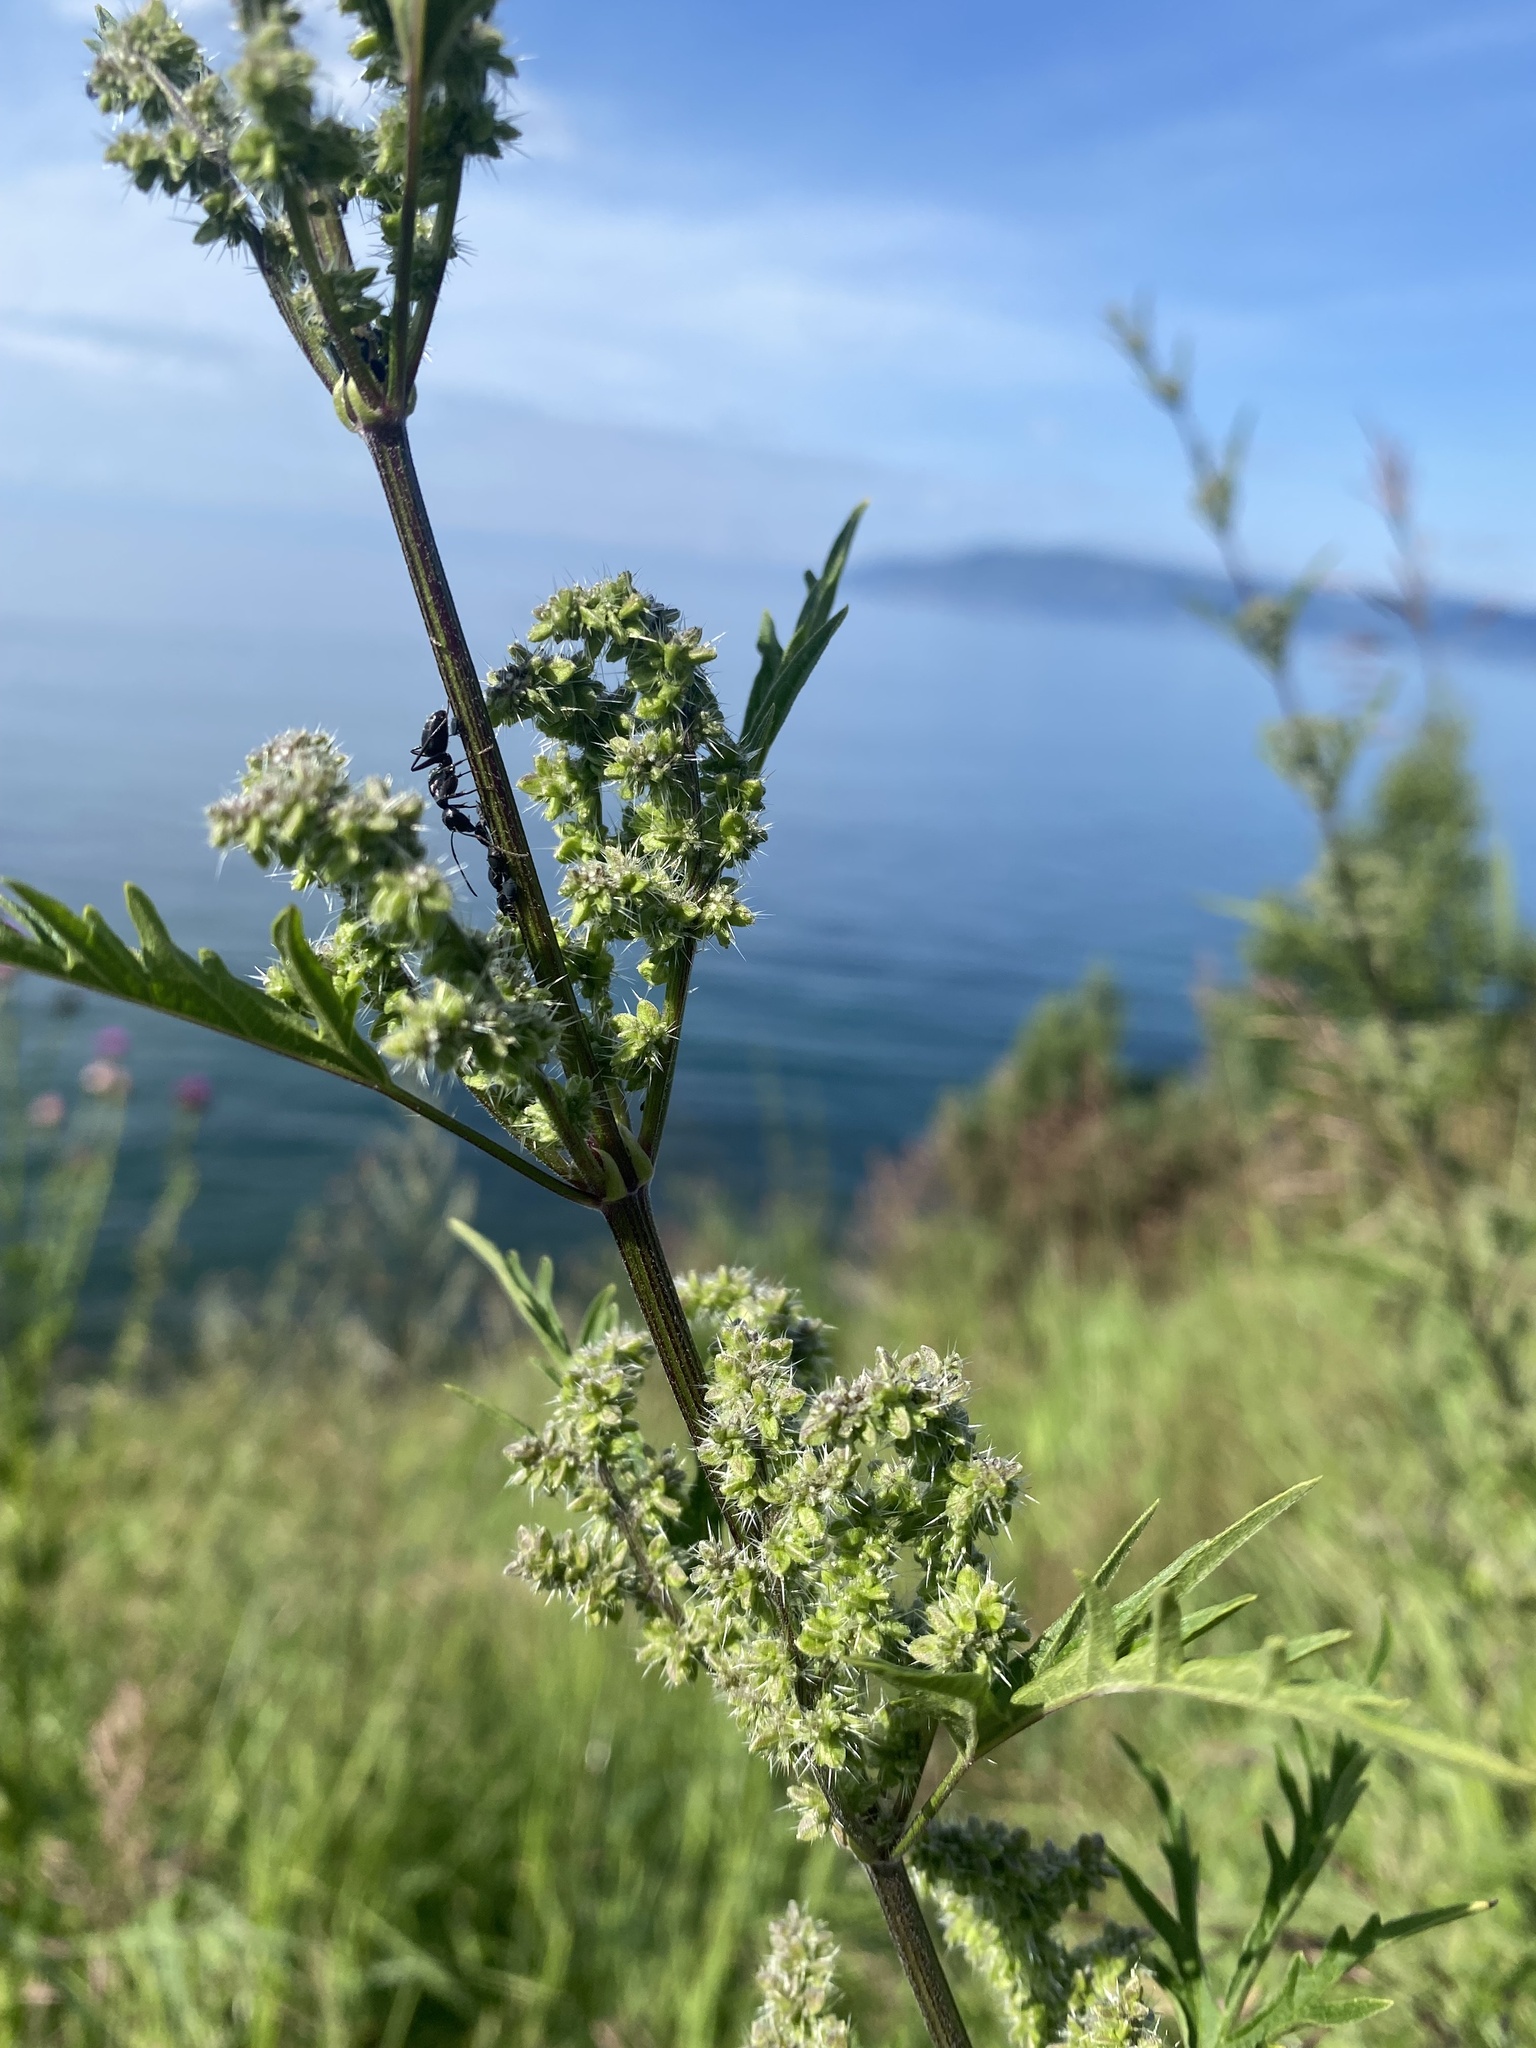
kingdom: Plantae
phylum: Tracheophyta
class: Magnoliopsida
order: Rosales
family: Urticaceae
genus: Urtica
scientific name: Urtica cannabina
